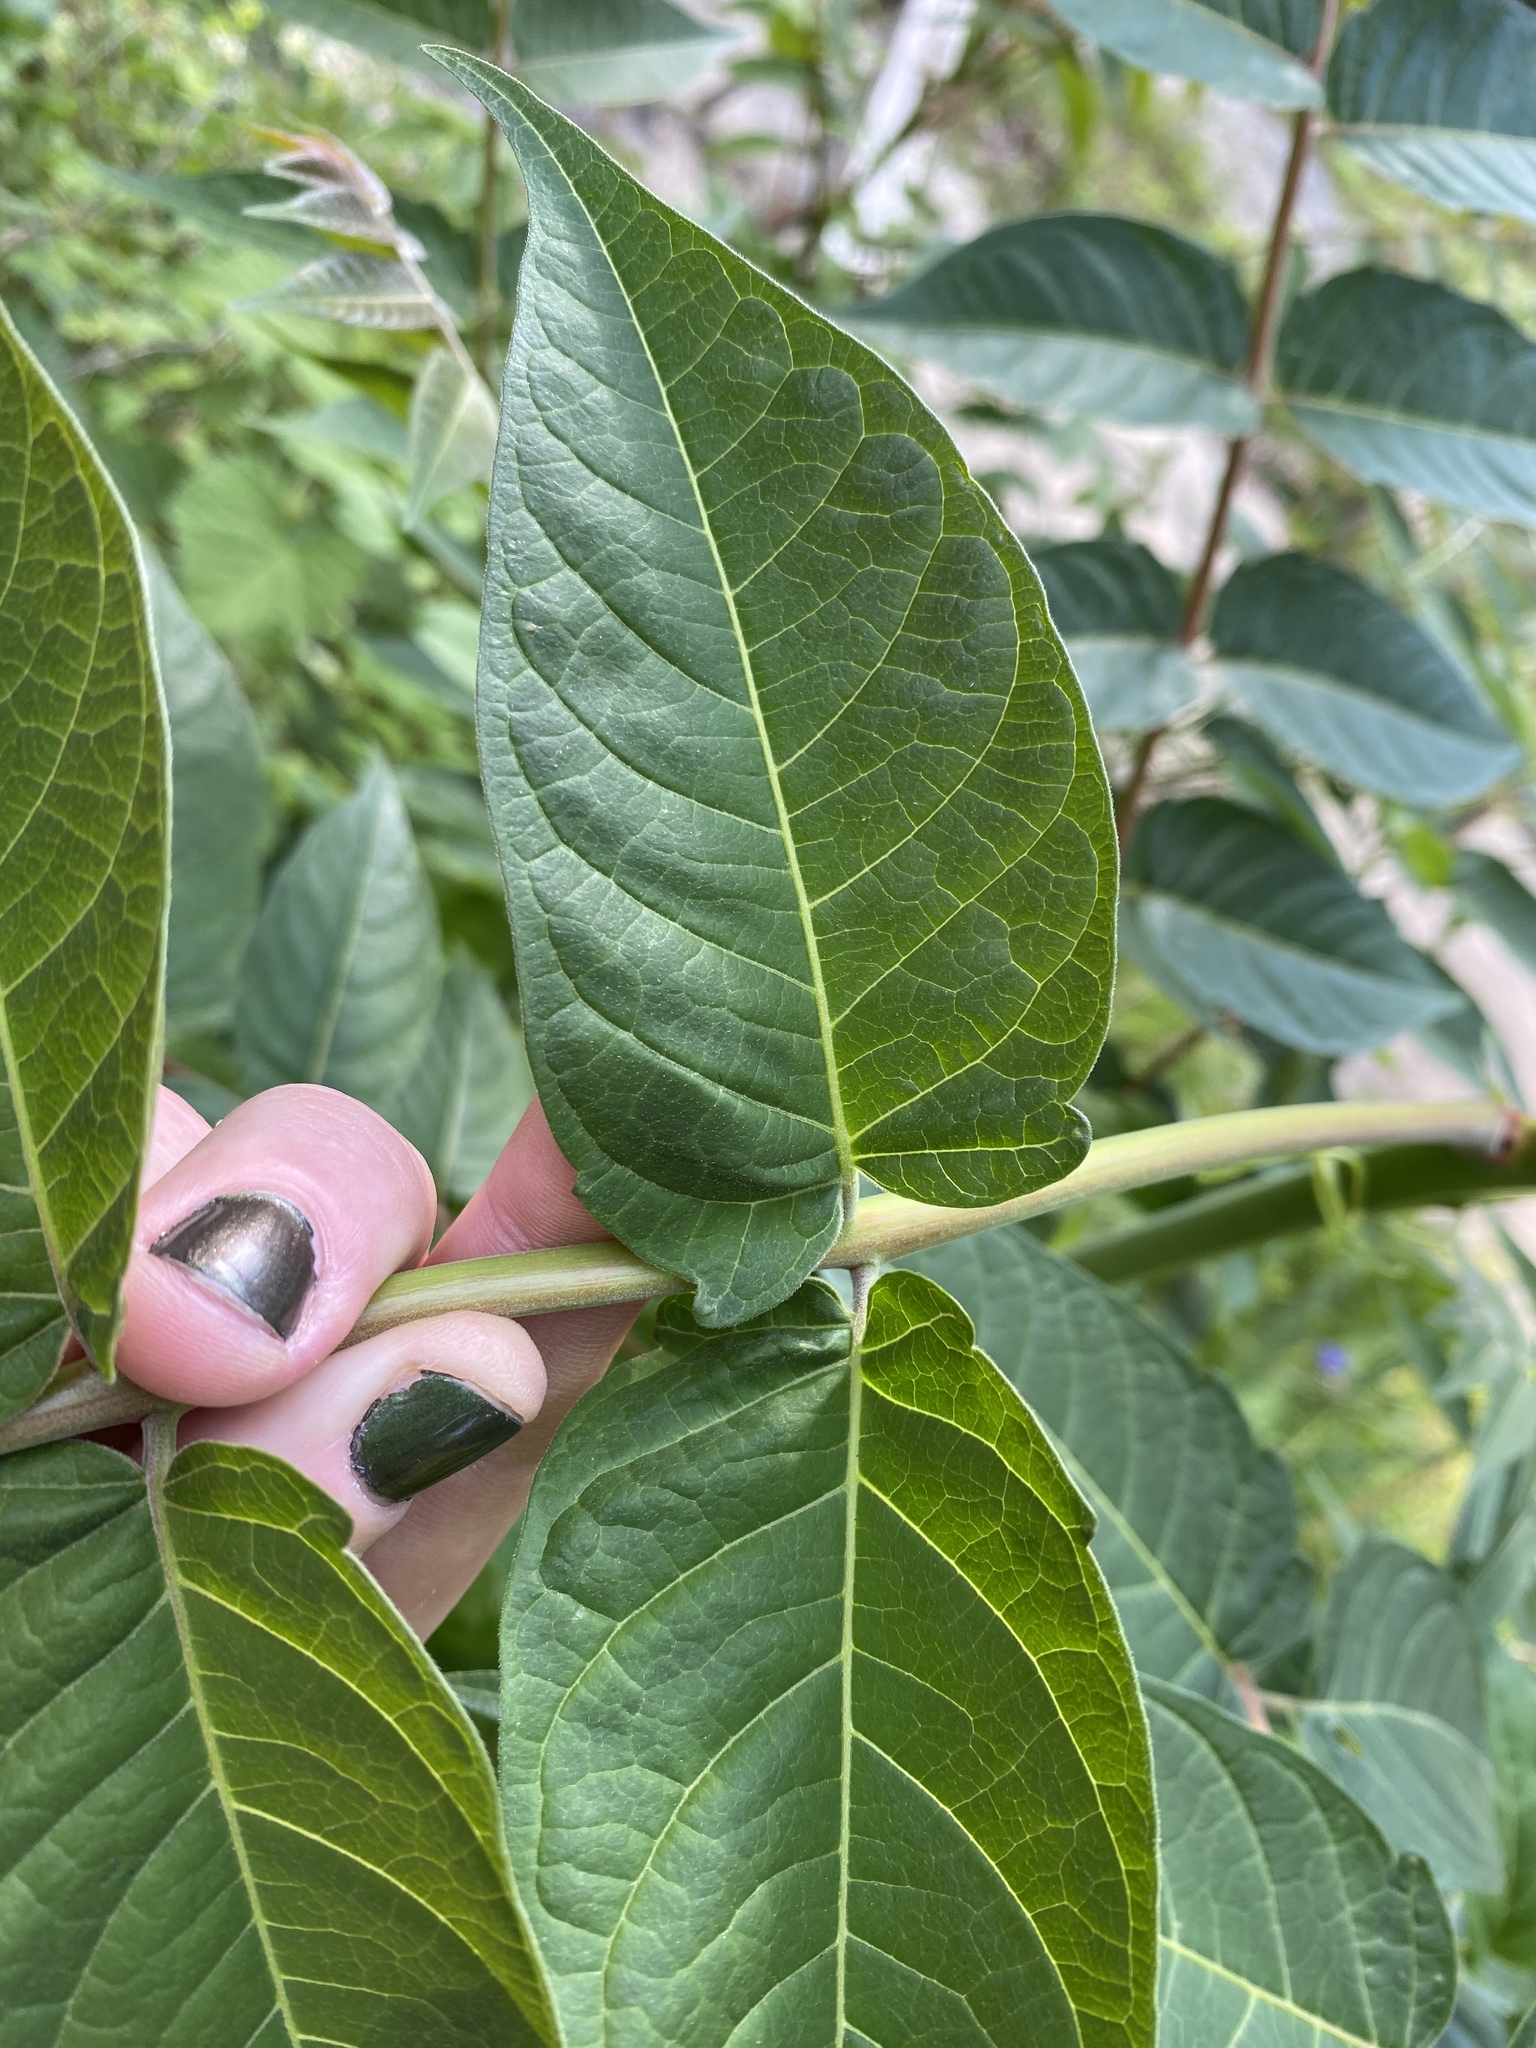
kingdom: Plantae
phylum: Tracheophyta
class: Magnoliopsida
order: Sapindales
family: Simaroubaceae
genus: Ailanthus
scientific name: Ailanthus altissima
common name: Tree-of-heaven
